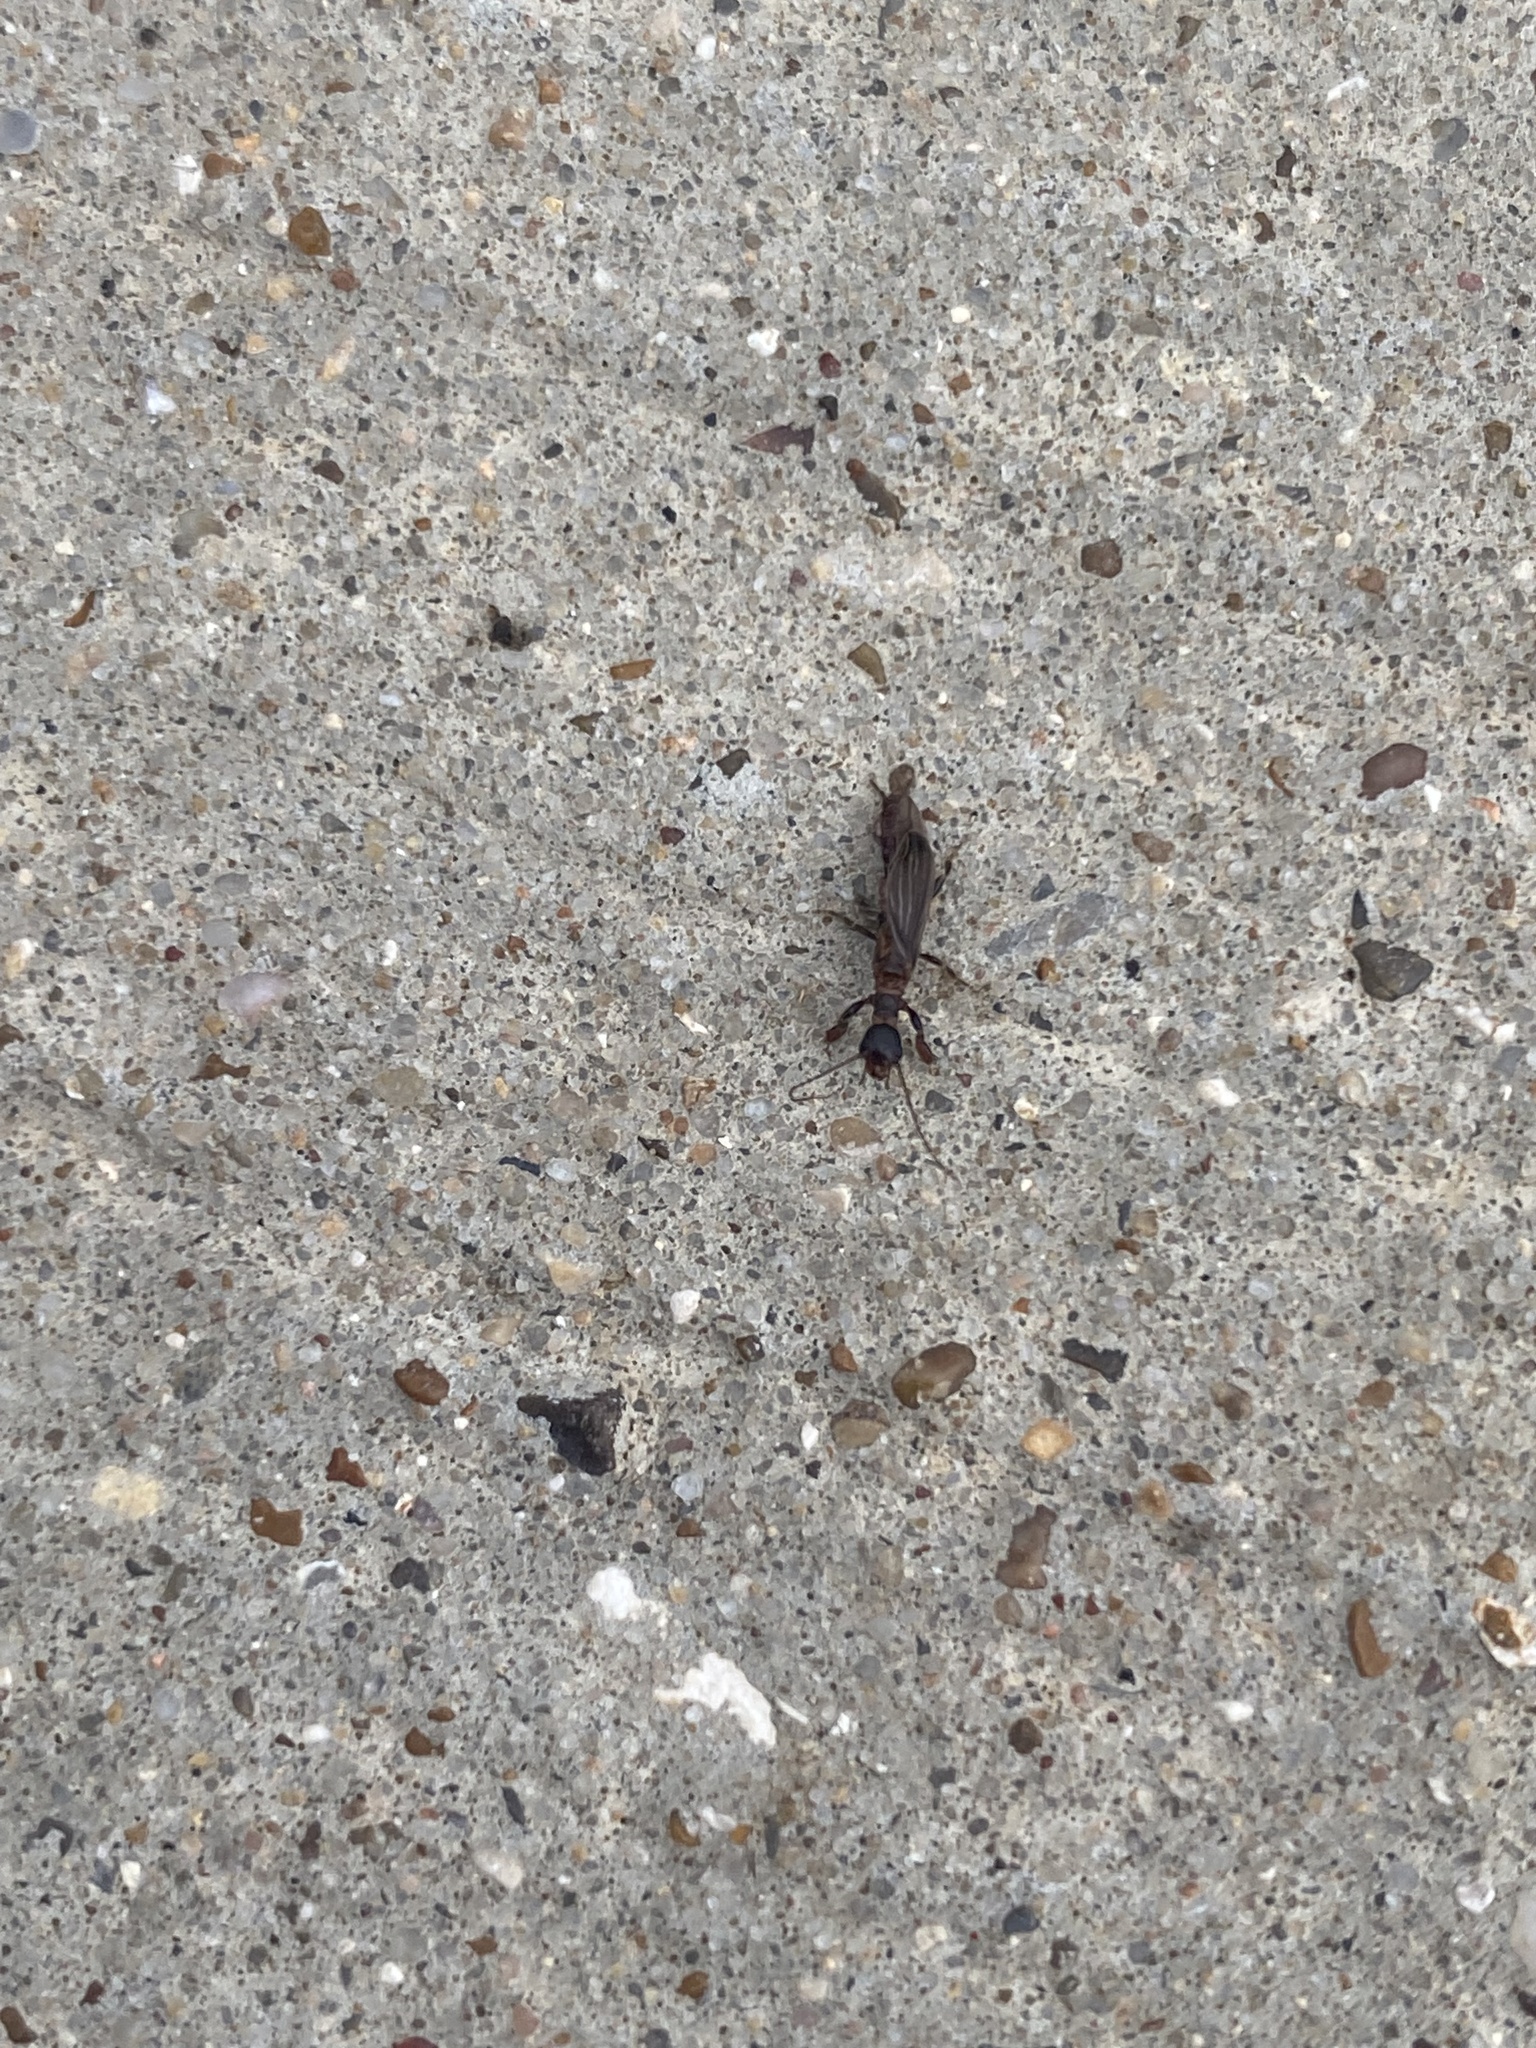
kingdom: Animalia
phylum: Arthropoda
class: Insecta
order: Embioptera
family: Oligotomidae
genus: Oligotoma
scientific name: Oligotoma nigra
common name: Black webspinner
